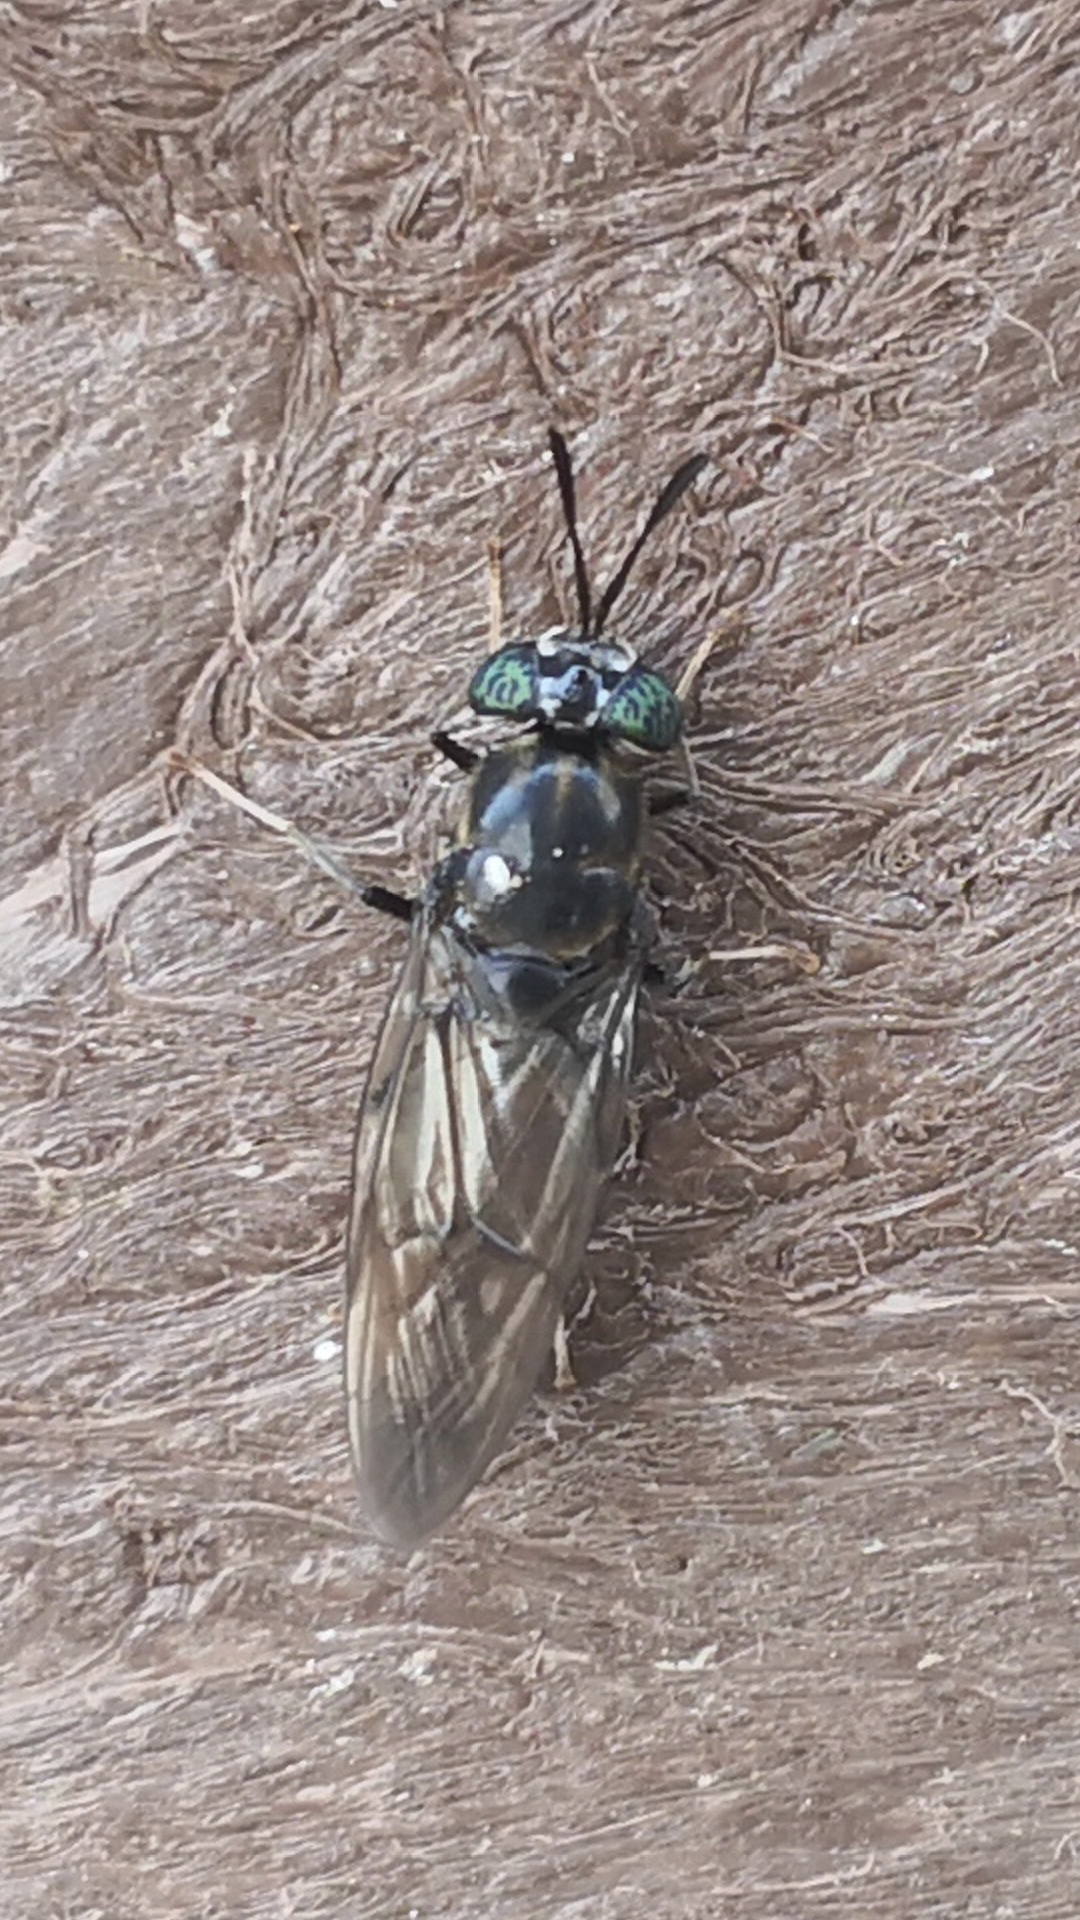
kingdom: Animalia
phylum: Arthropoda
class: Insecta
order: Diptera
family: Stratiomyidae
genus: Hermetia
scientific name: Hermetia illucens
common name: Black soldier fly
